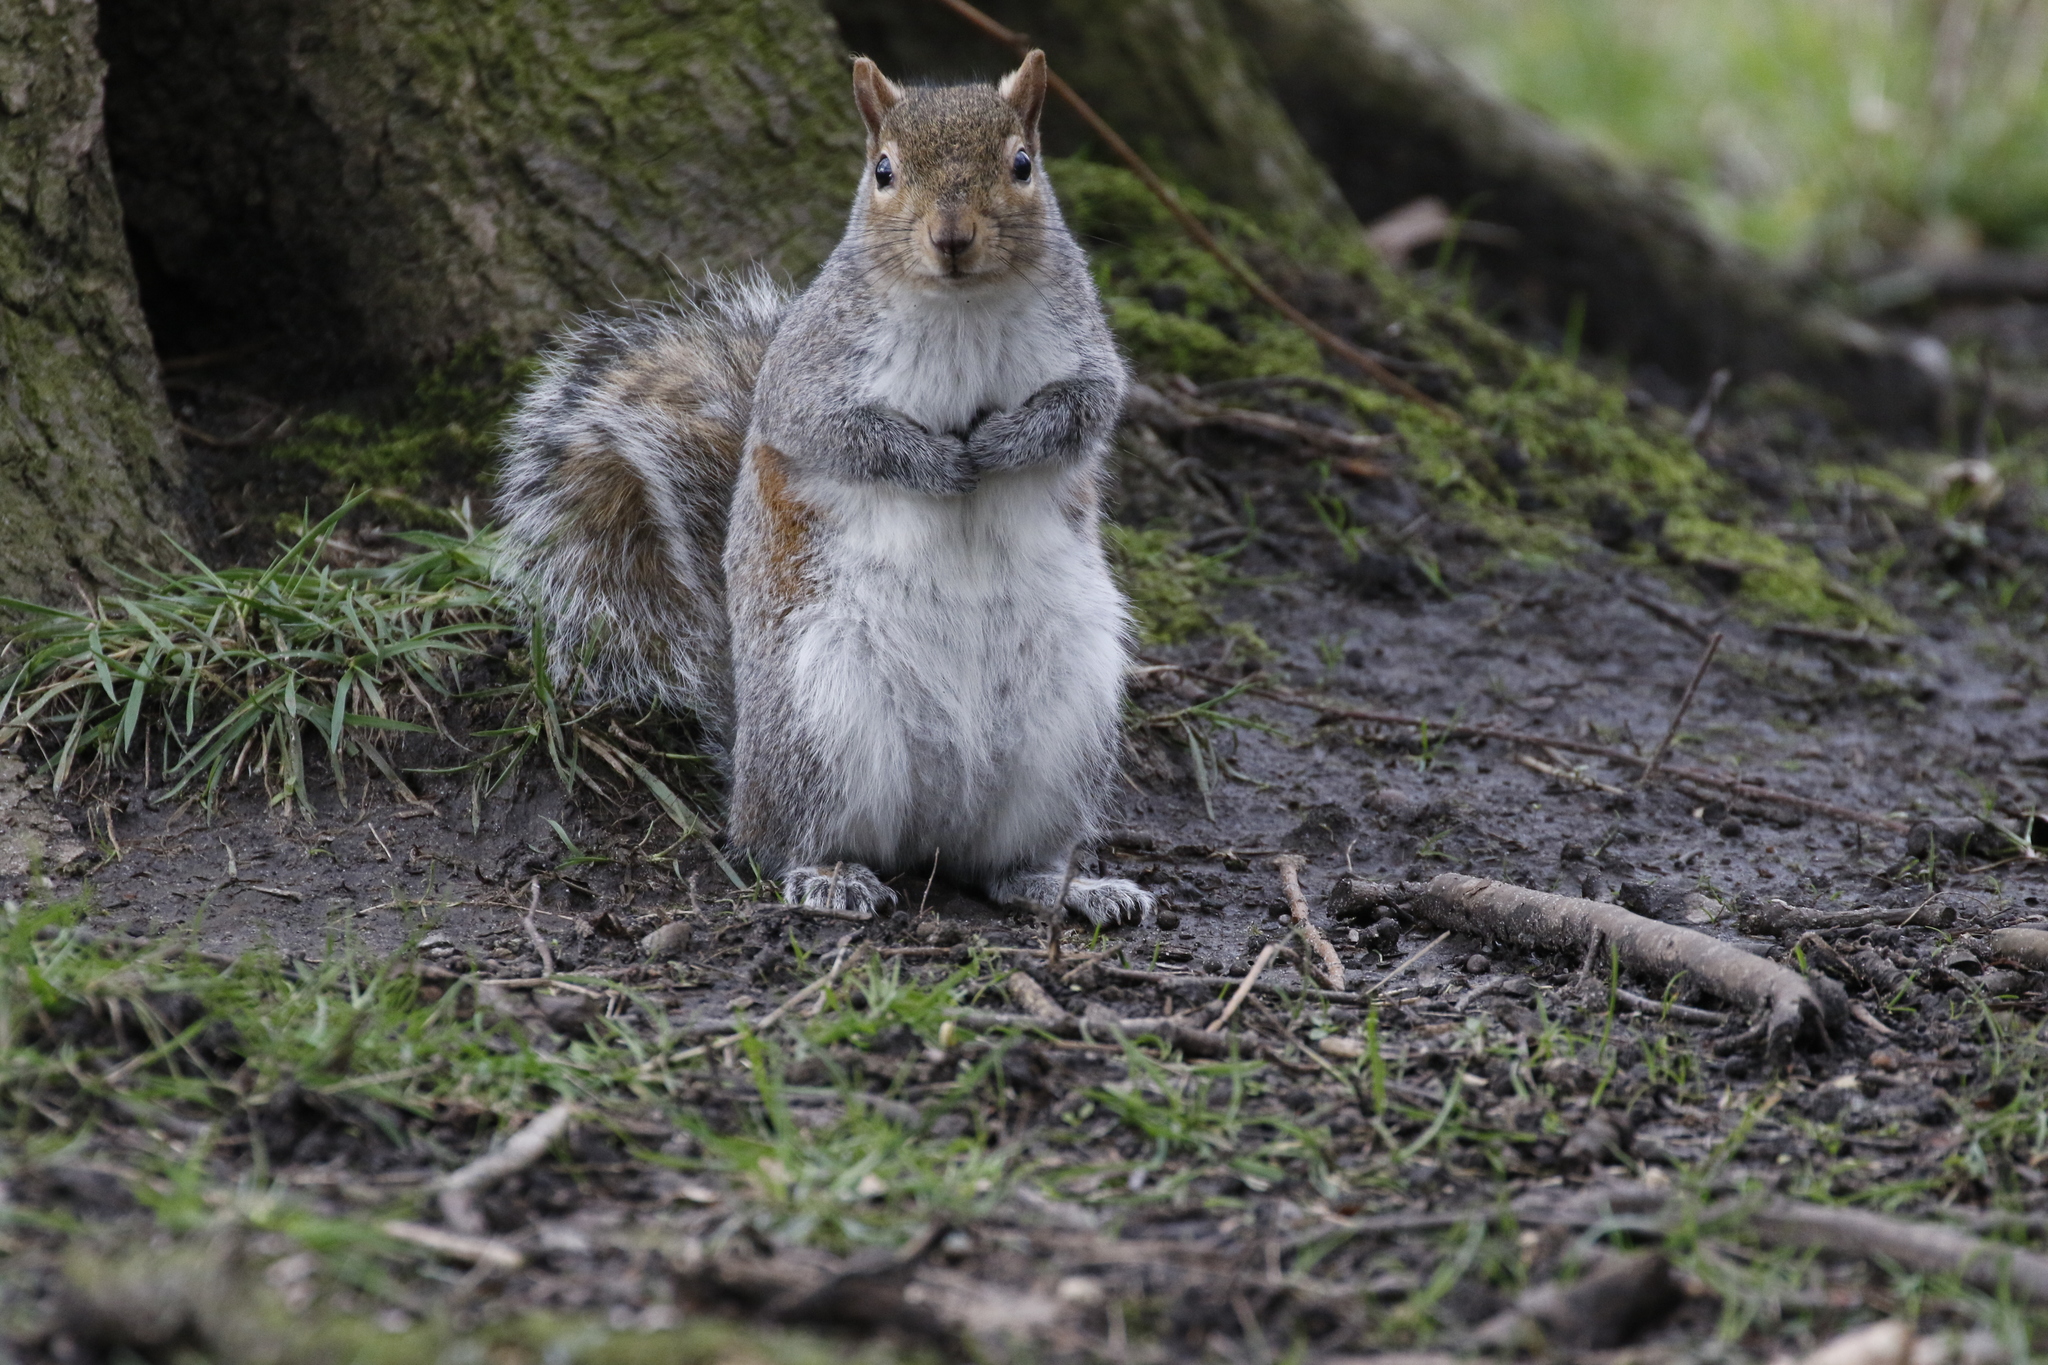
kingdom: Animalia
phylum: Chordata
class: Mammalia
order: Rodentia
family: Sciuridae
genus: Sciurus
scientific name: Sciurus carolinensis
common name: Eastern gray squirrel
